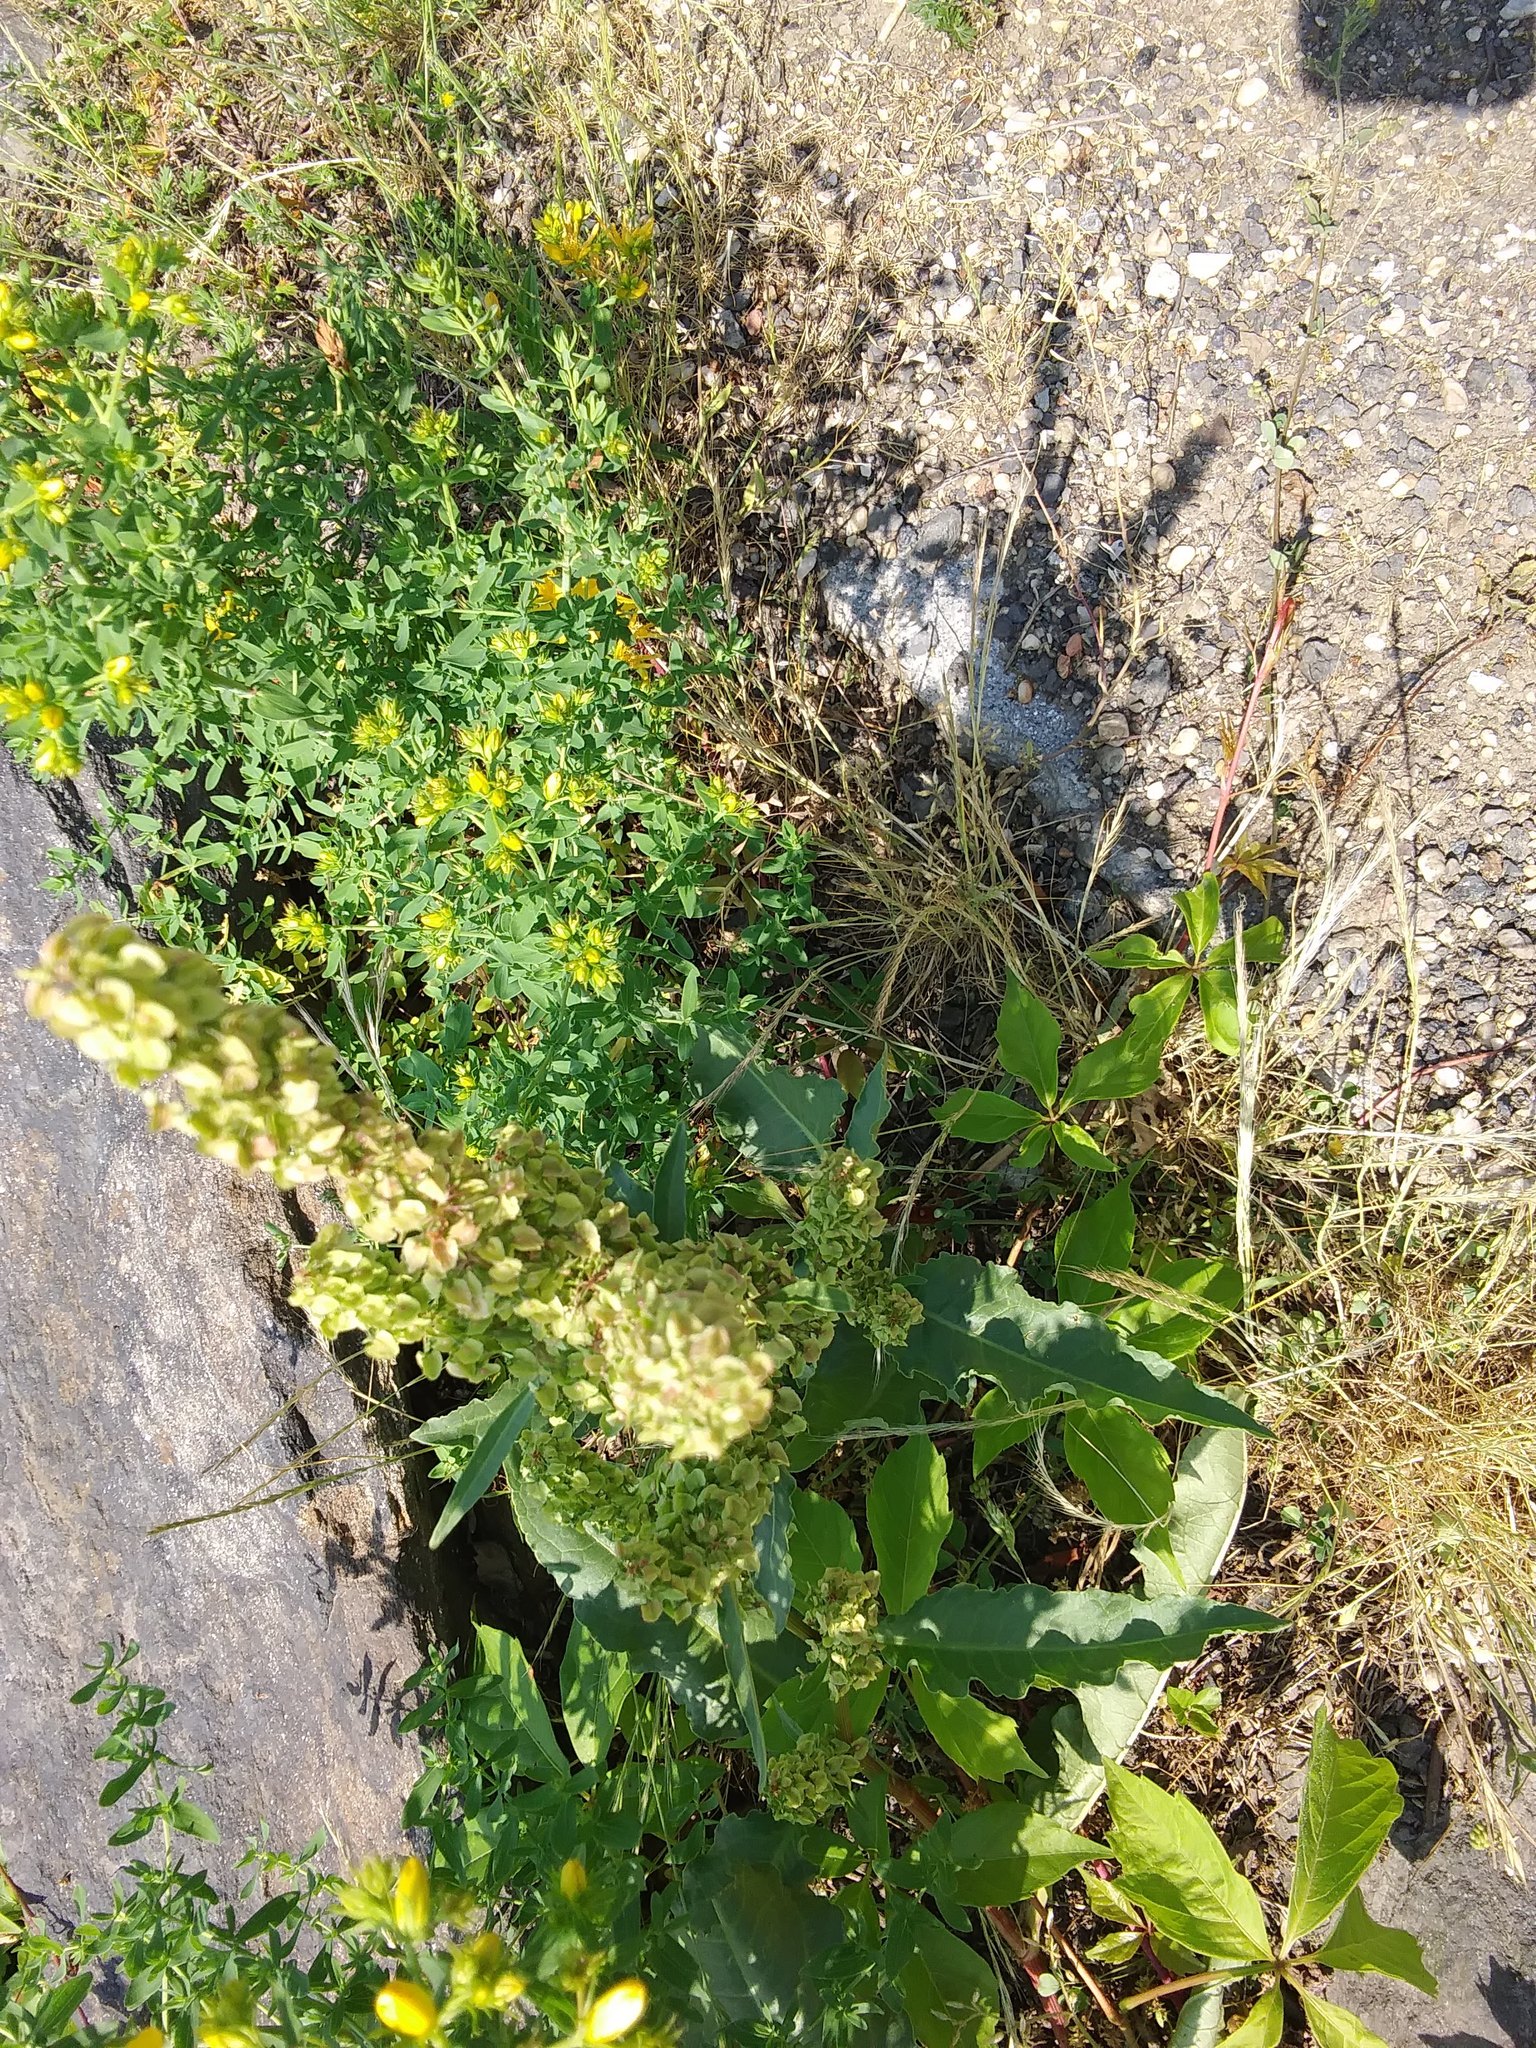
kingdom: Plantae
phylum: Tracheophyta
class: Magnoliopsida
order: Caryophyllales
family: Polygonaceae
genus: Rumex
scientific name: Rumex crispus
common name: Curled dock
